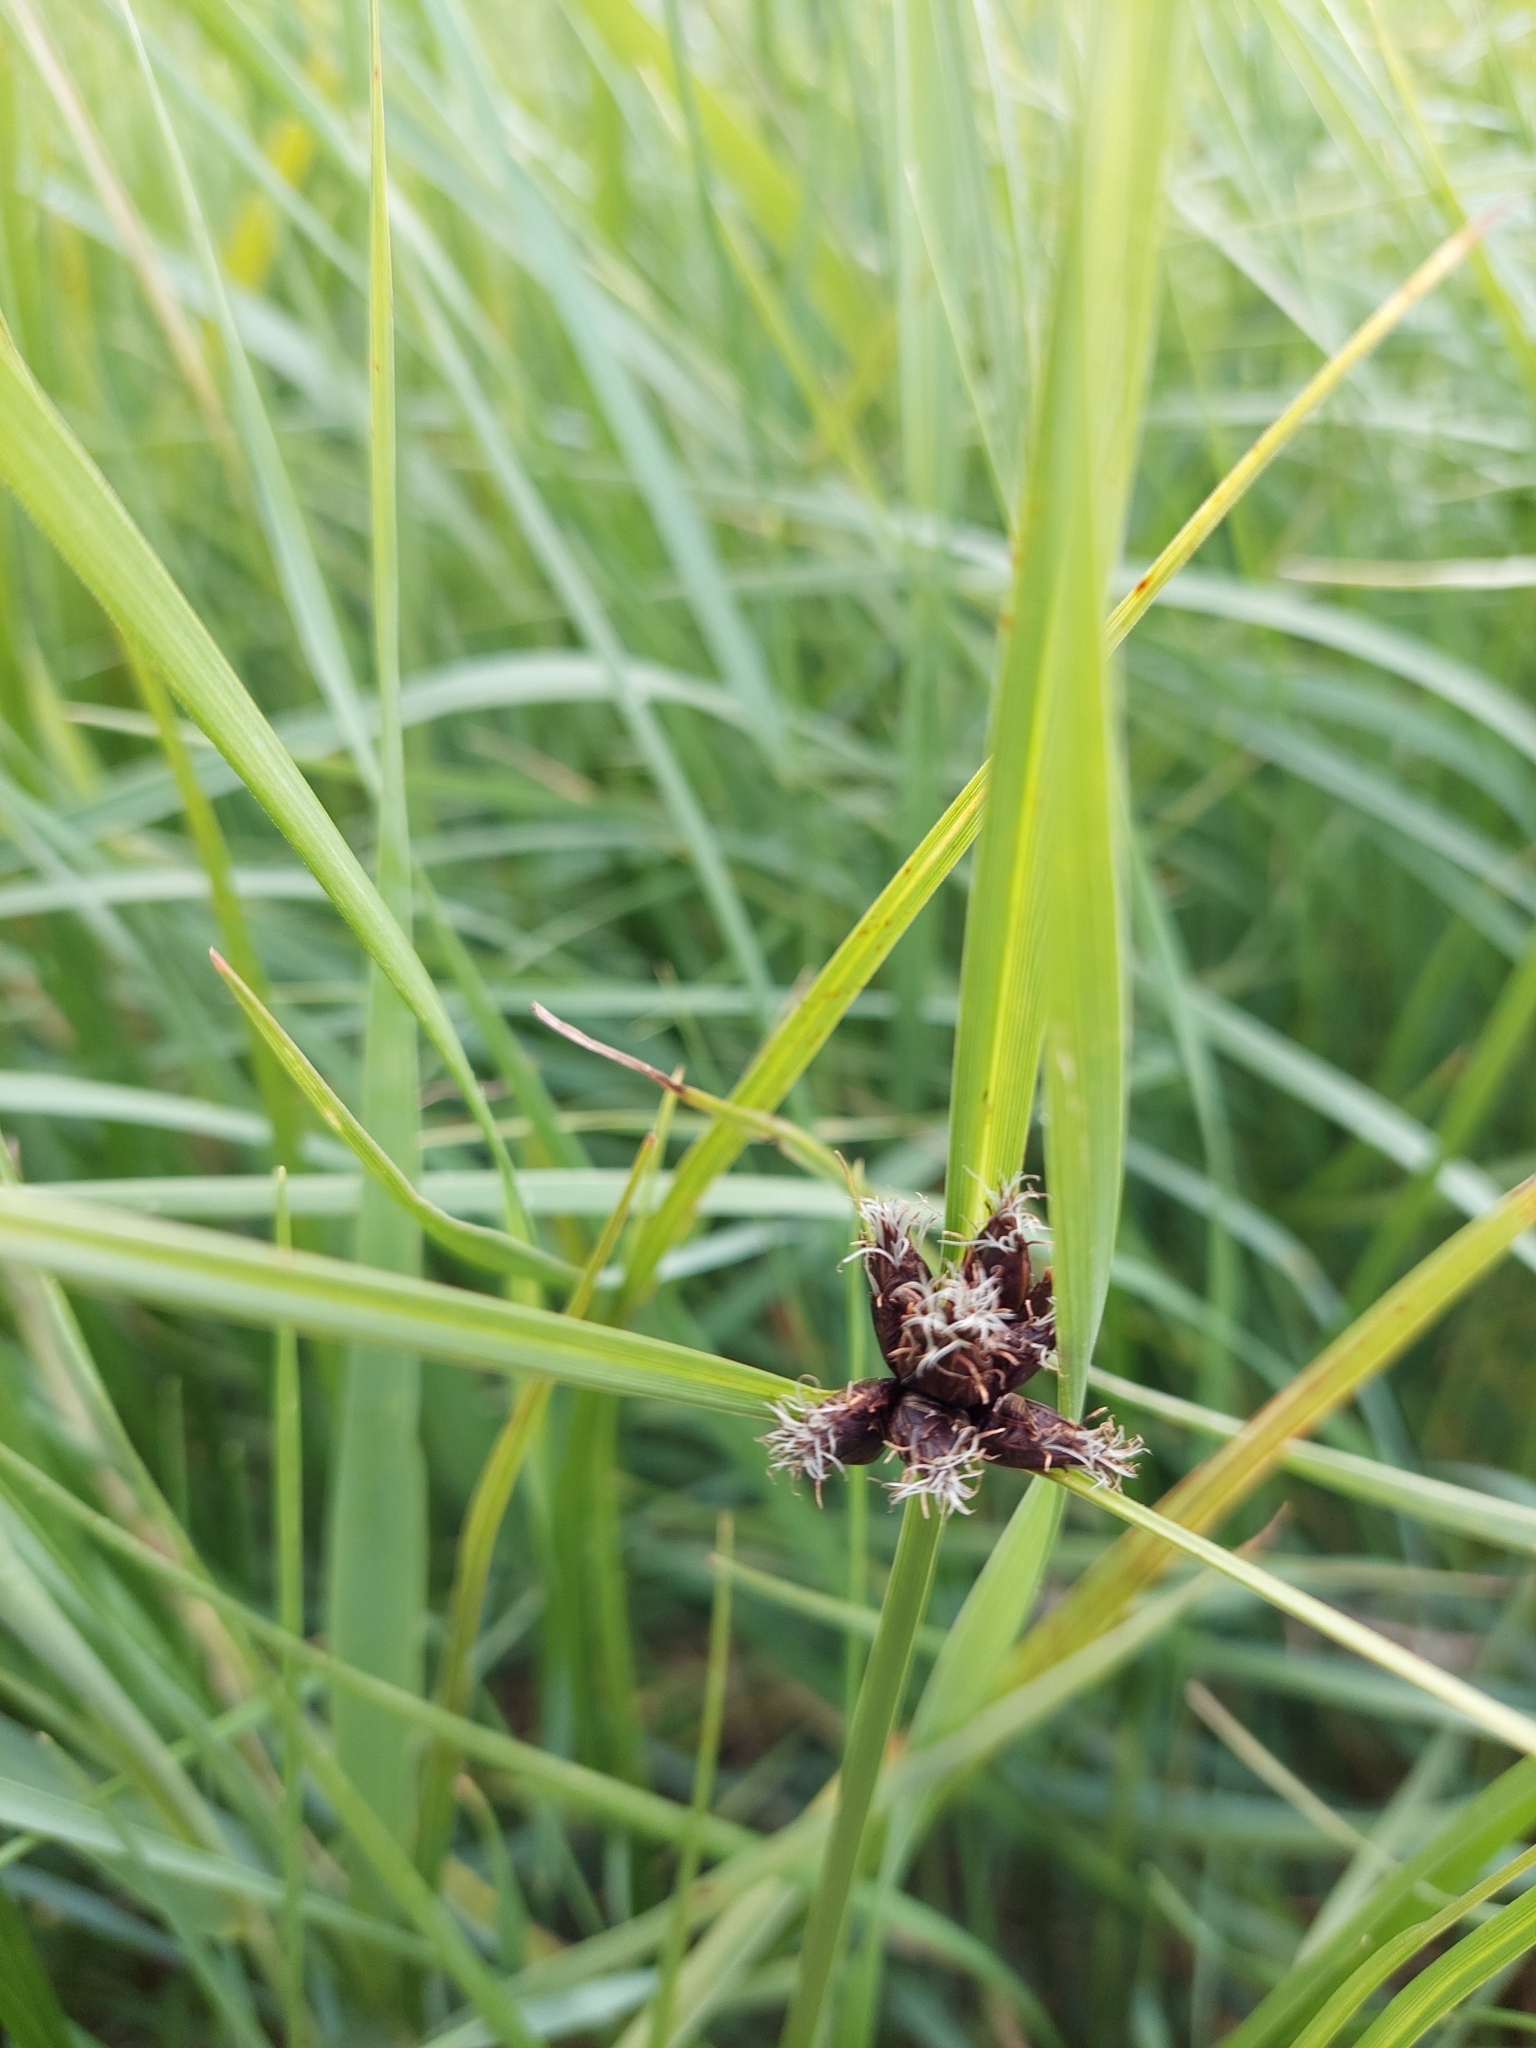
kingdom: Plantae
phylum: Tracheophyta
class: Liliopsida
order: Poales
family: Cyperaceae
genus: Bolboschoenus
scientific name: Bolboschoenus maritimus
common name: Sea club-rush
